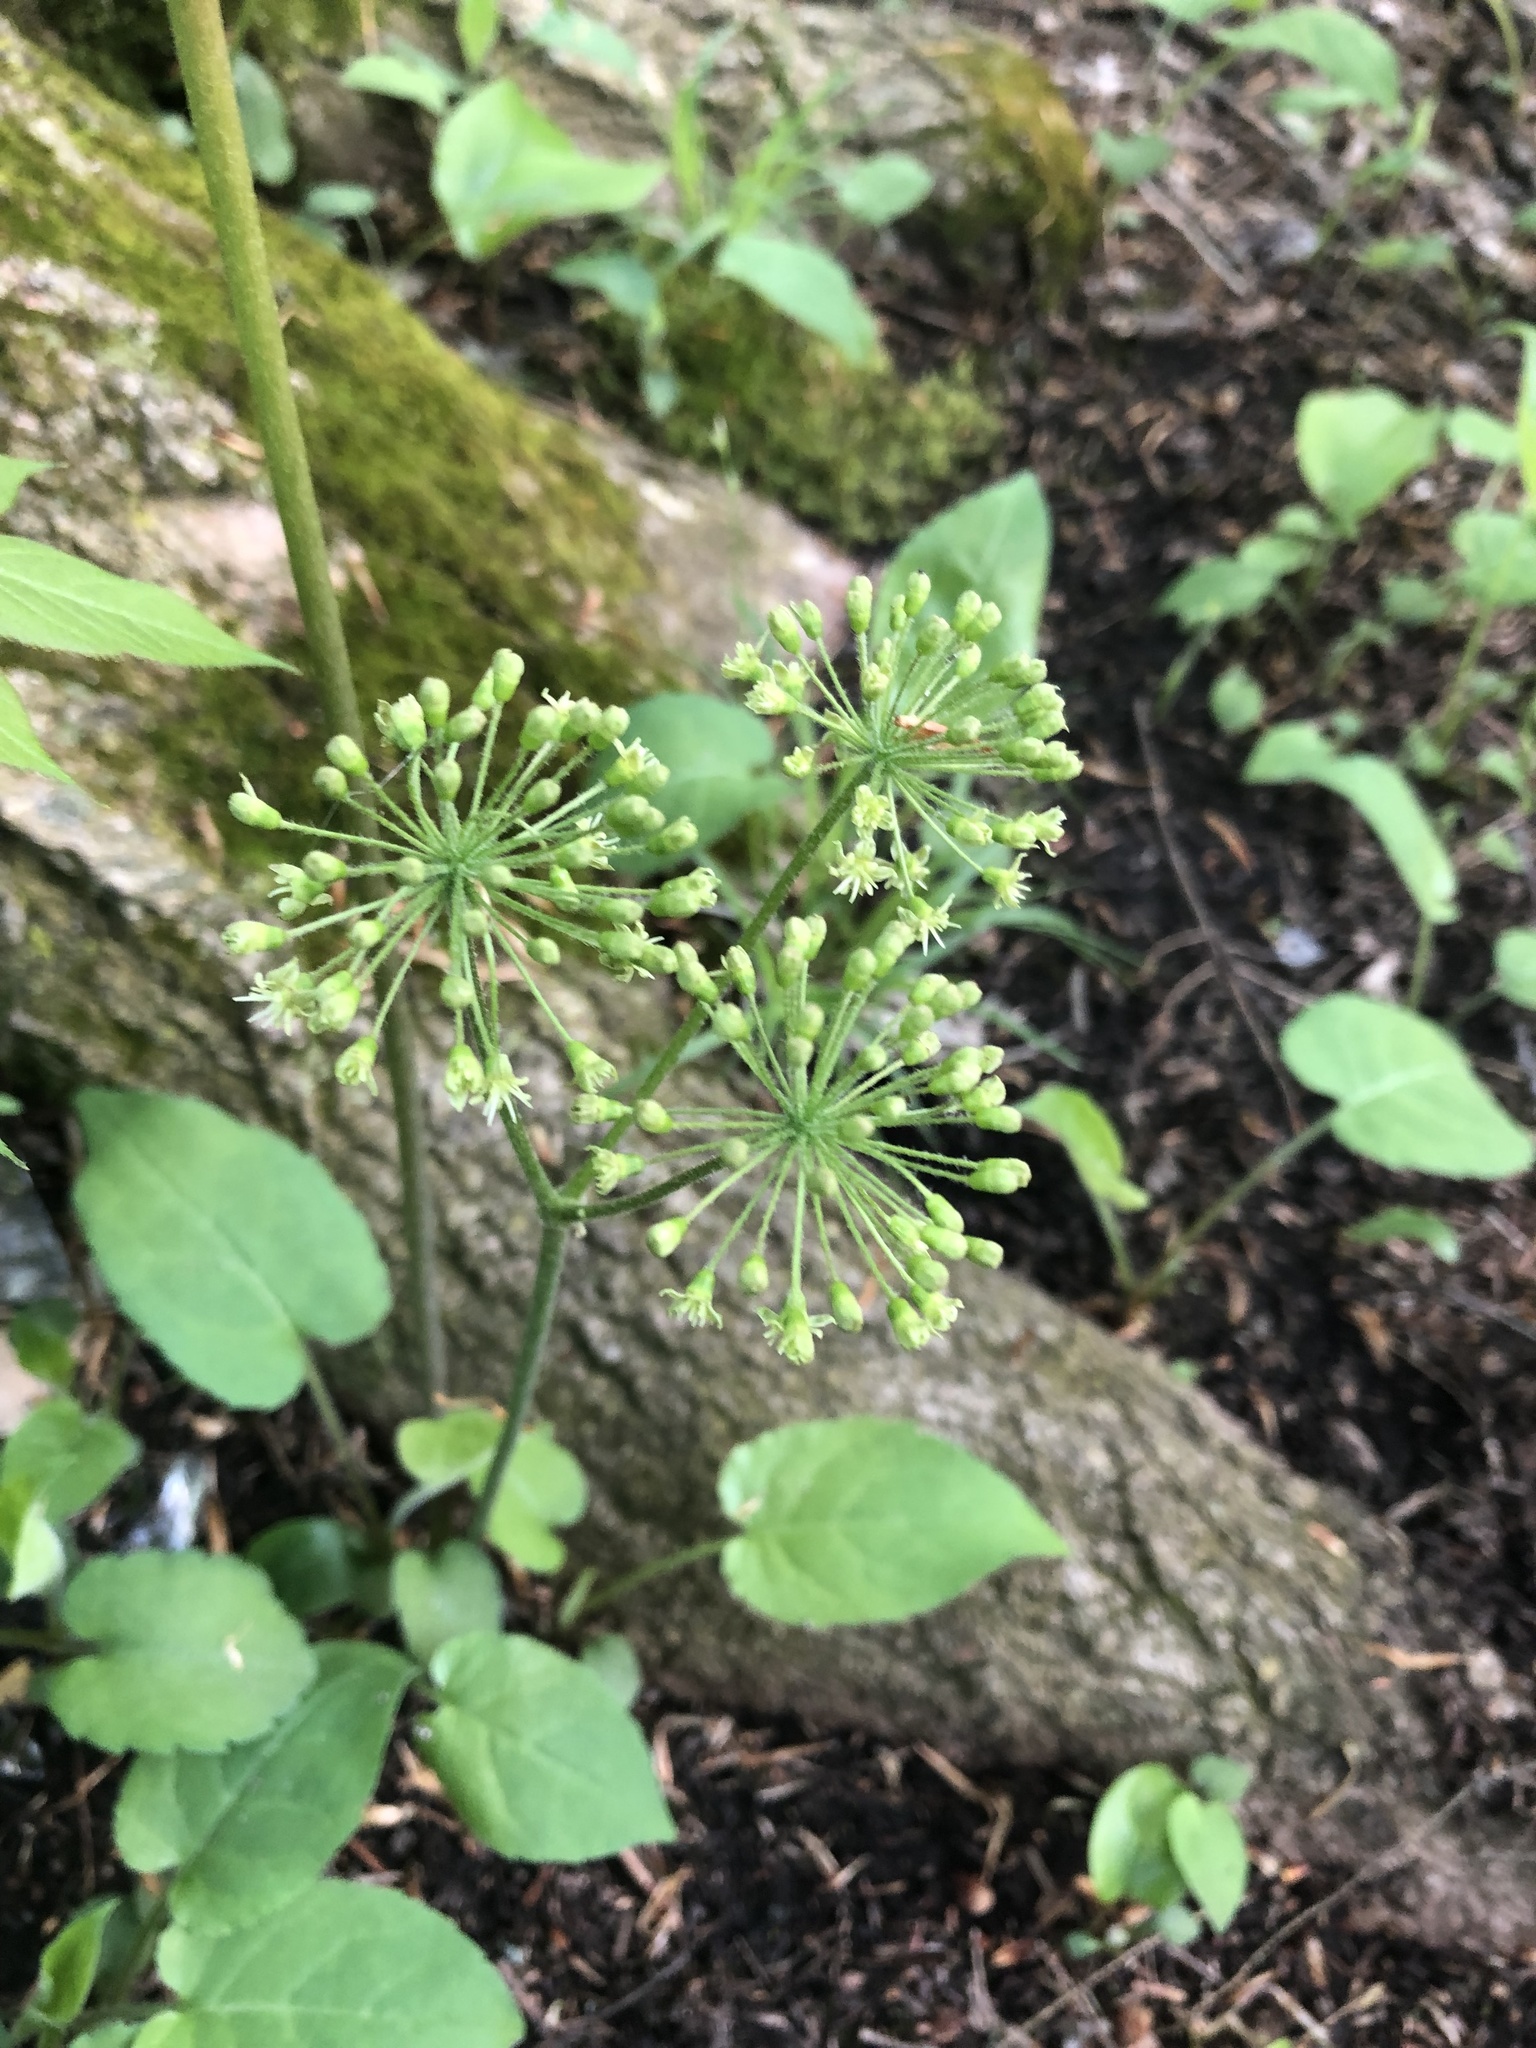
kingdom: Plantae
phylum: Tracheophyta
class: Magnoliopsida
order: Apiales
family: Araliaceae
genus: Aralia
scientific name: Aralia nudicaulis
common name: Wild sarsaparilla
